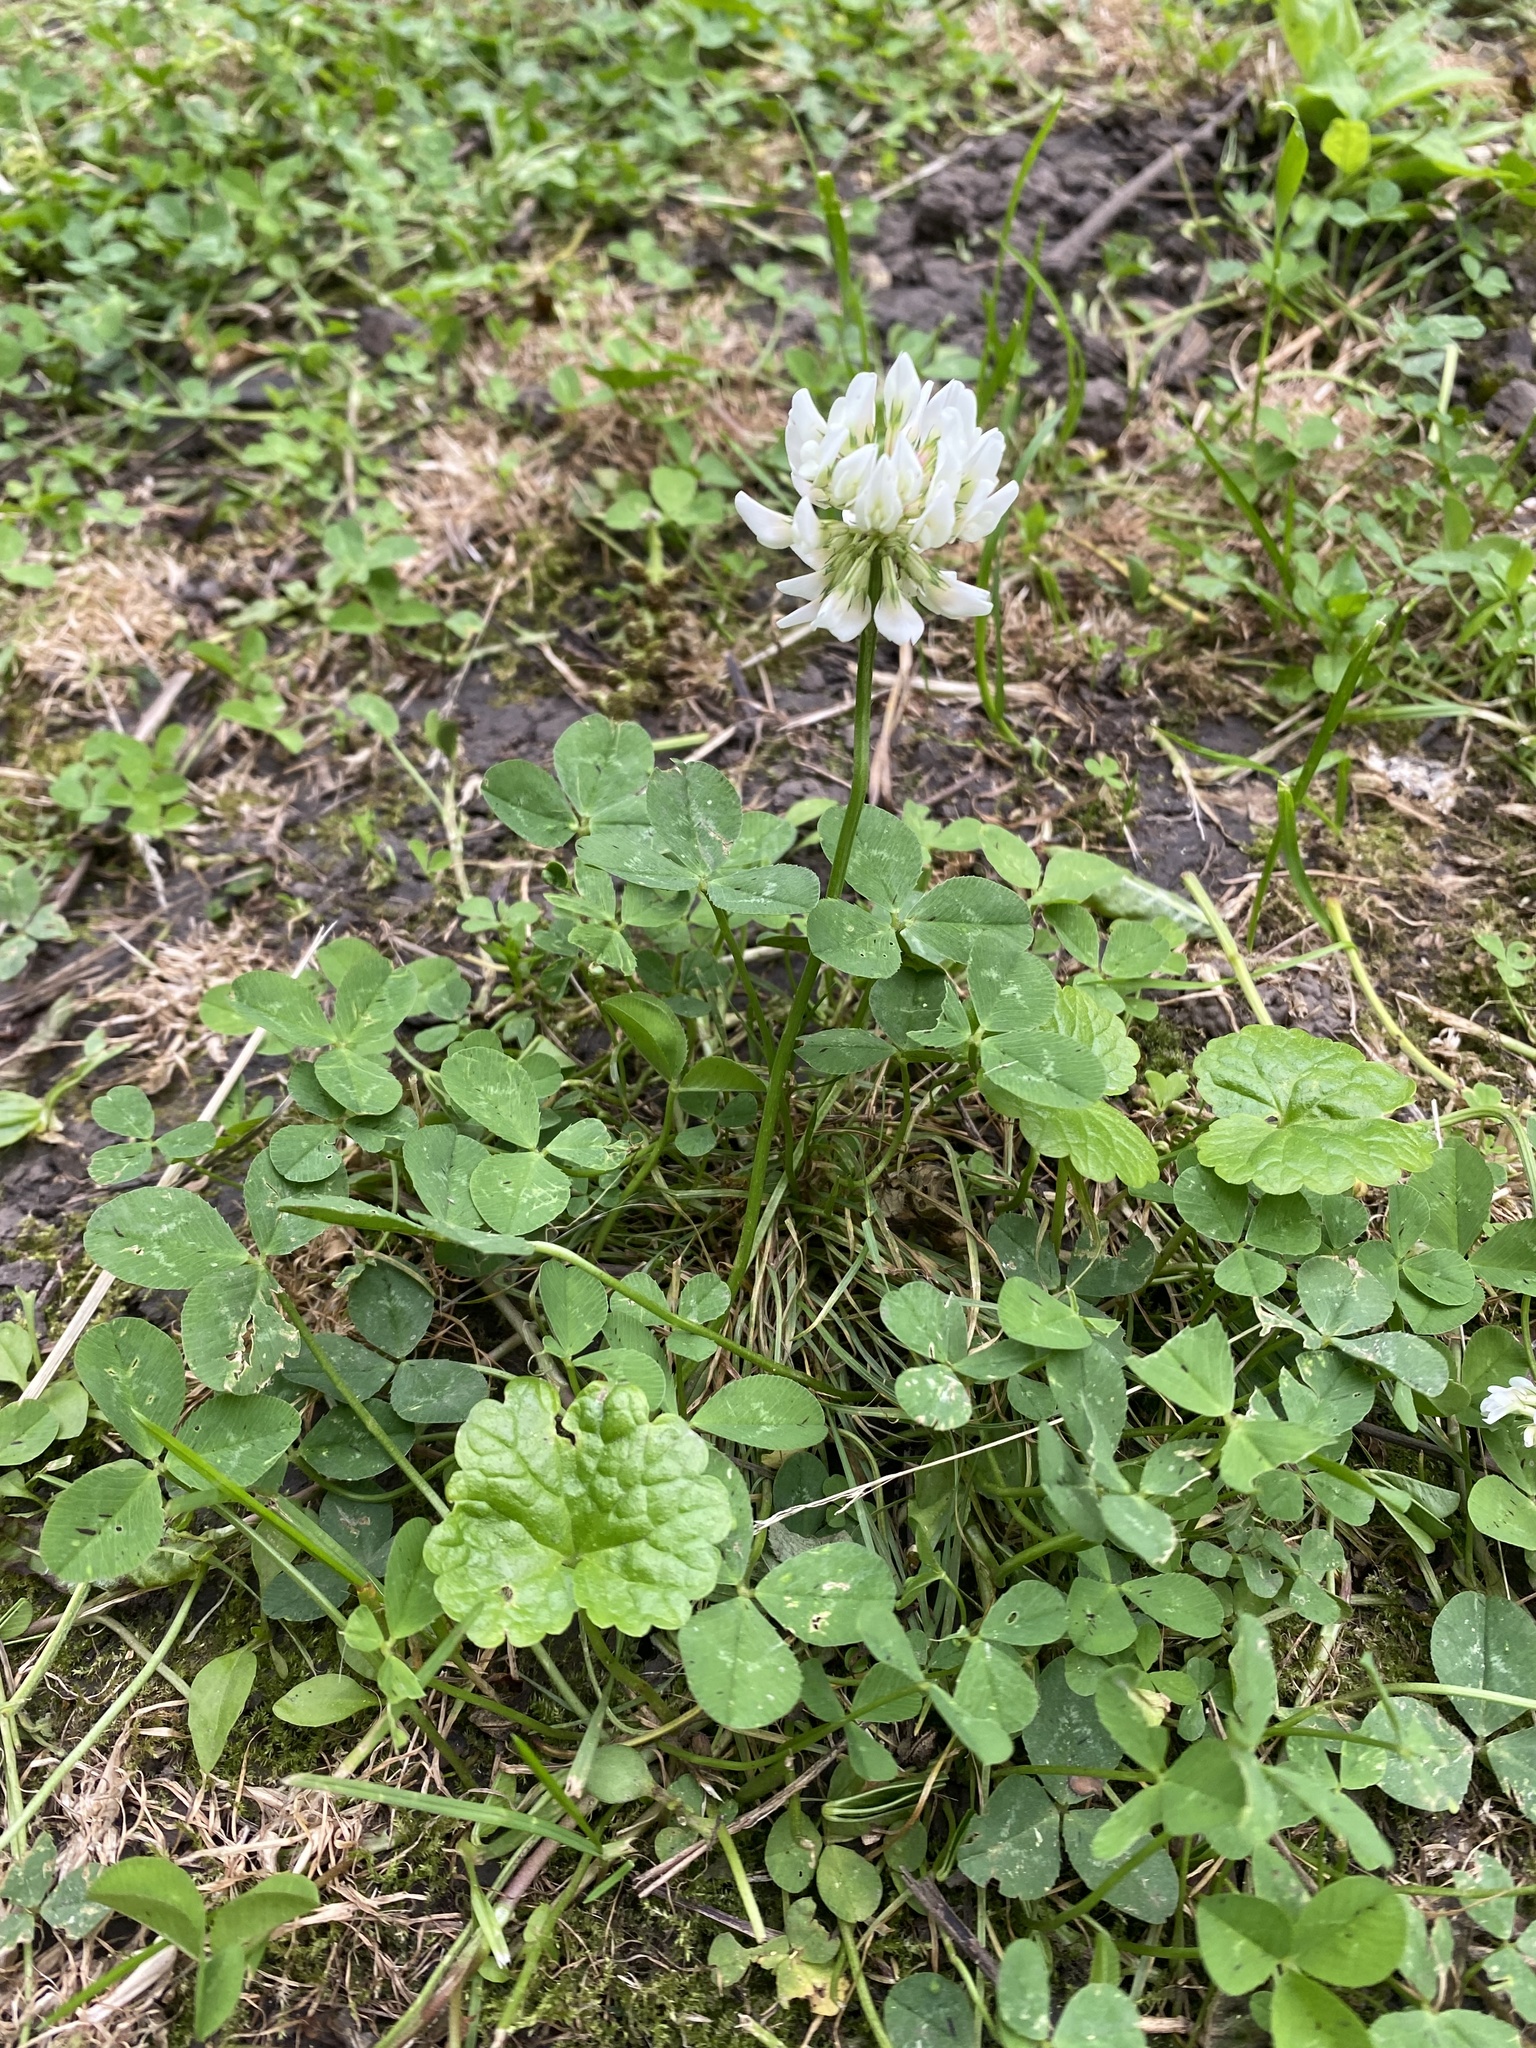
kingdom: Plantae
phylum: Tracheophyta
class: Magnoliopsida
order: Fabales
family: Fabaceae
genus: Trifolium
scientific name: Trifolium repens
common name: White clover
